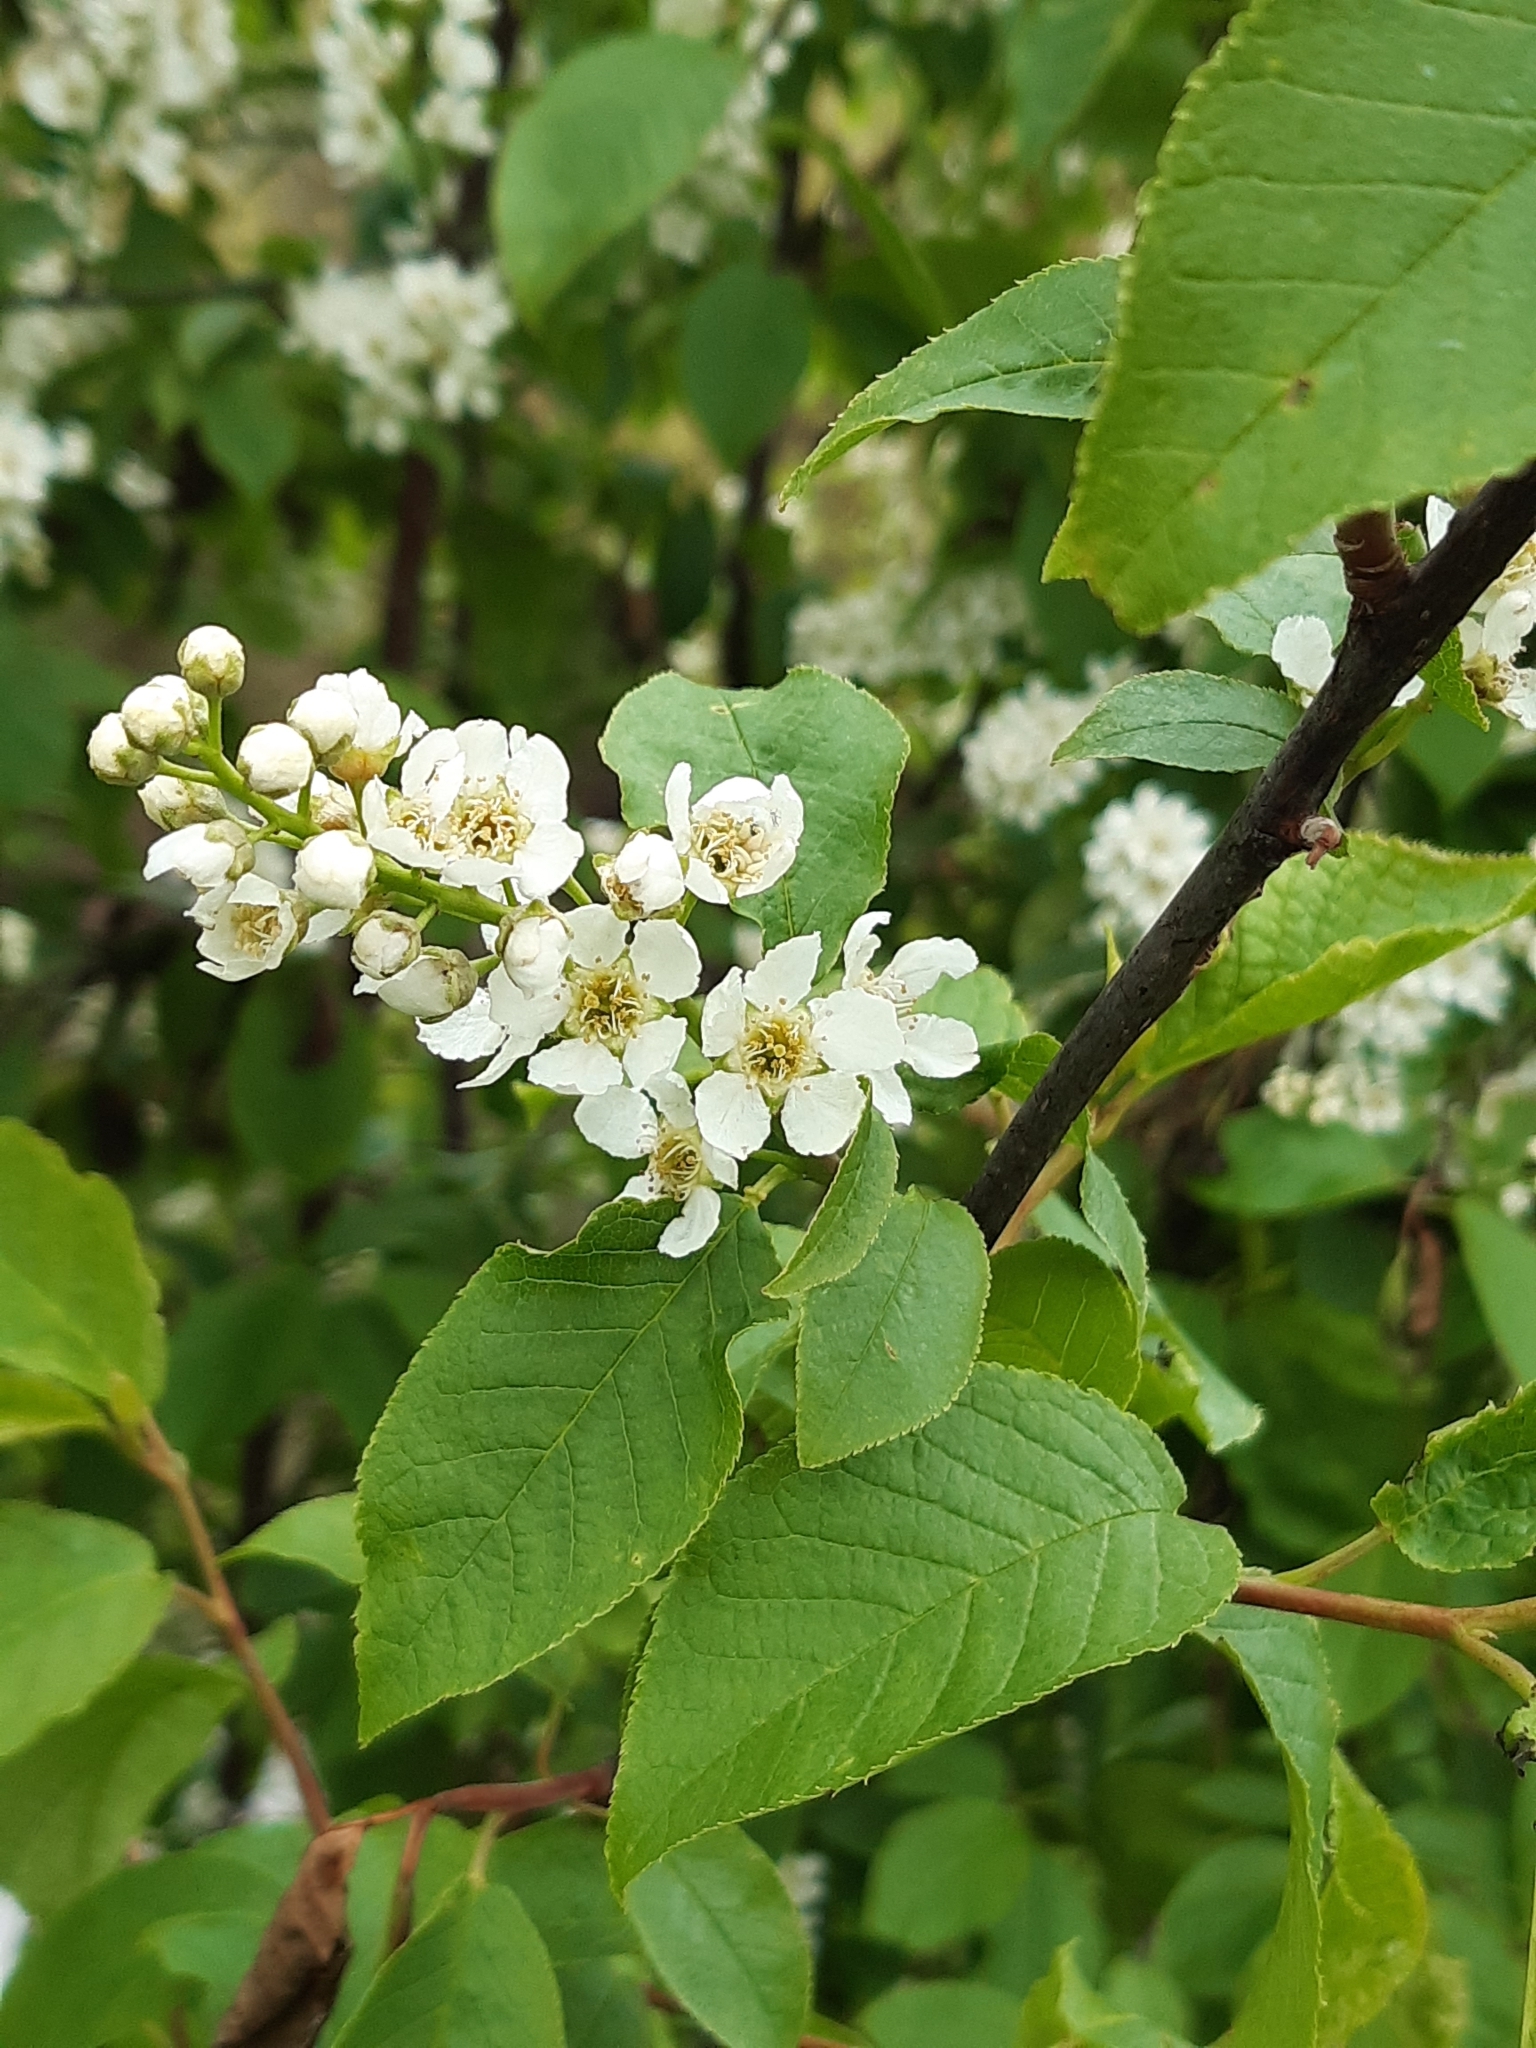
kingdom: Plantae
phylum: Tracheophyta
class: Magnoliopsida
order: Rosales
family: Rosaceae
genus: Prunus
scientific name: Prunus padus
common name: Bird cherry
